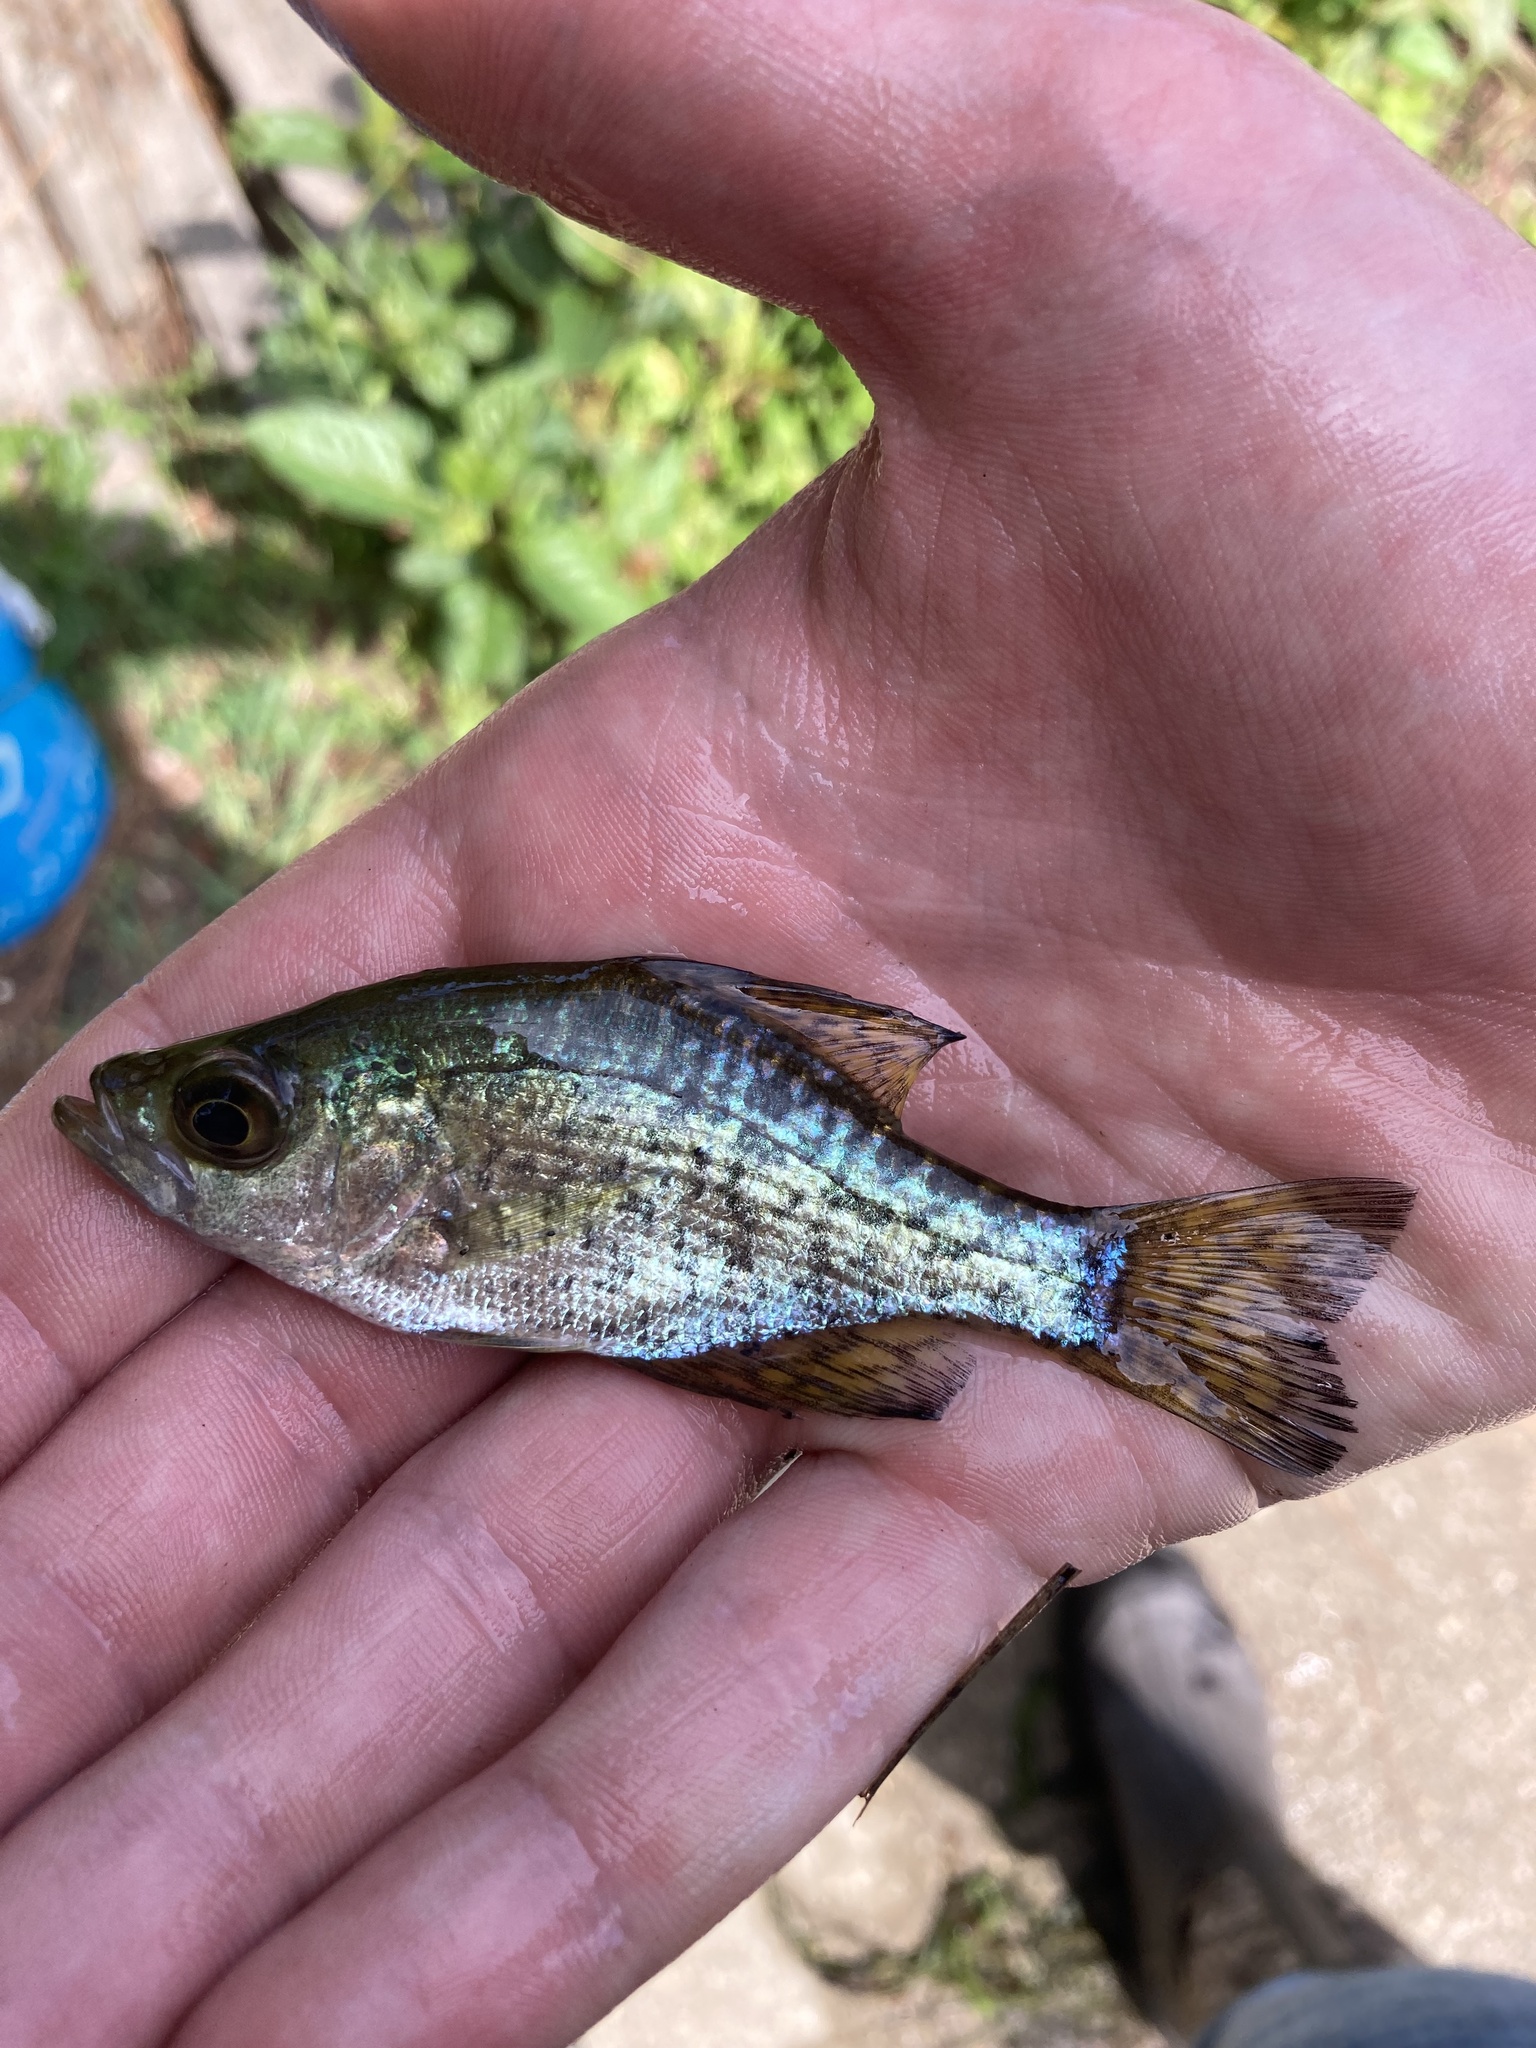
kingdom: Animalia
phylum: Chordata
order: Perciformes
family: Centrarchidae
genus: Pomoxis
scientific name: Pomoxis nigromaculatus
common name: Black crappie
